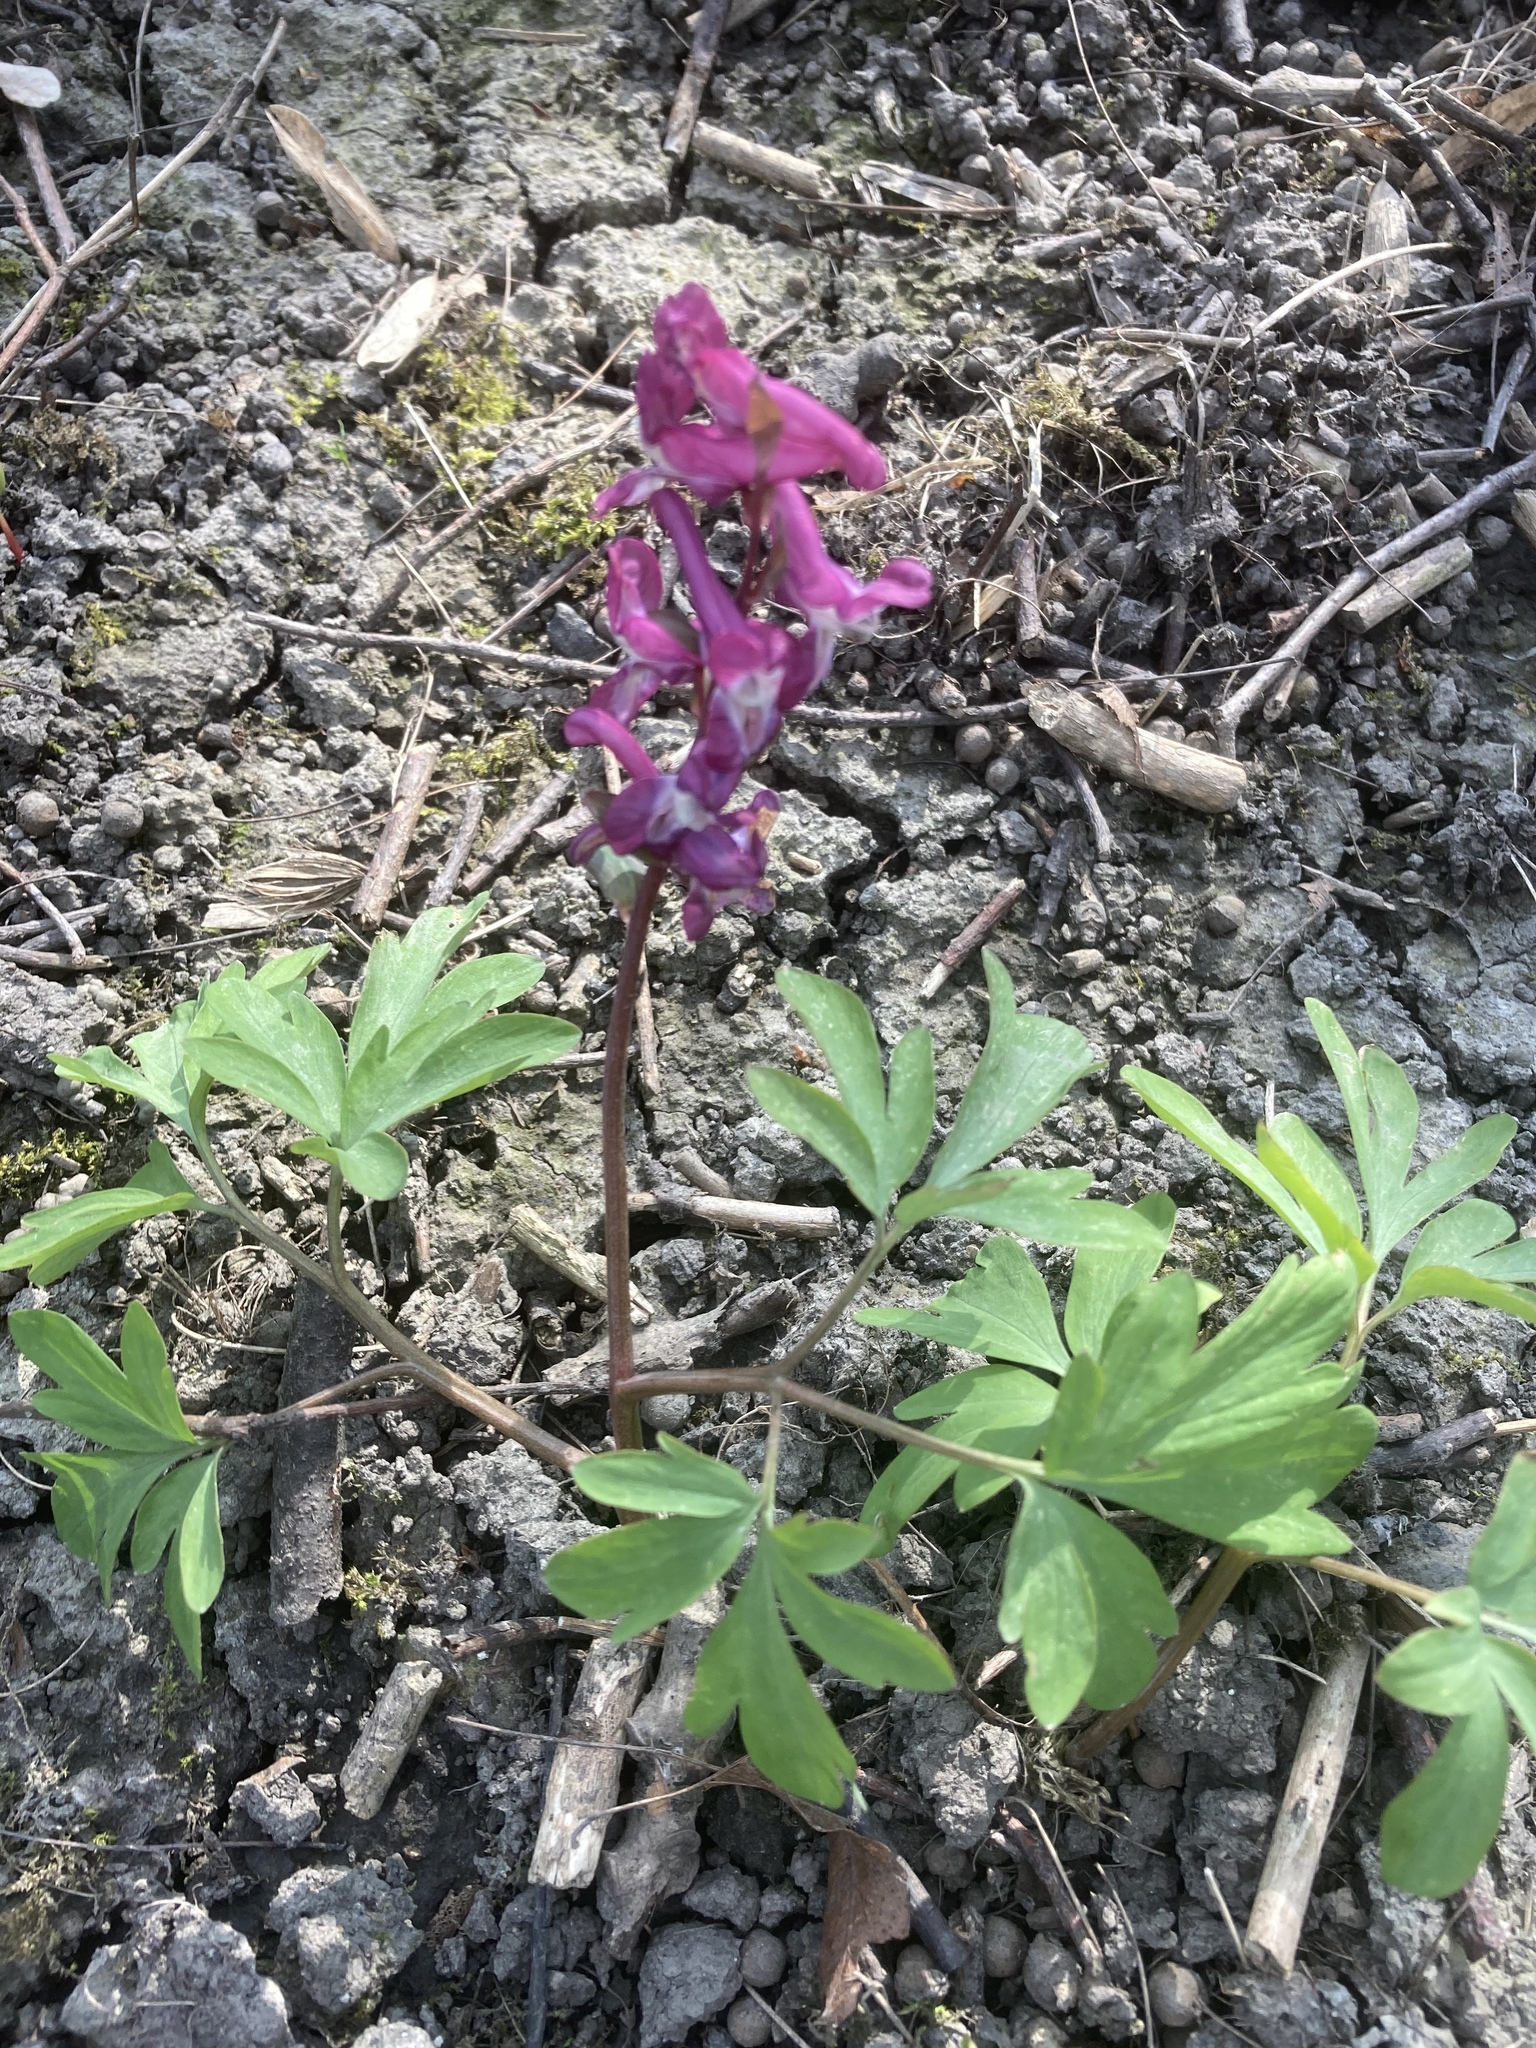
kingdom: Plantae
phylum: Tracheophyta
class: Magnoliopsida
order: Ranunculales
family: Papaveraceae
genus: Corydalis
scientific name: Corydalis cava
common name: Hollowroot
